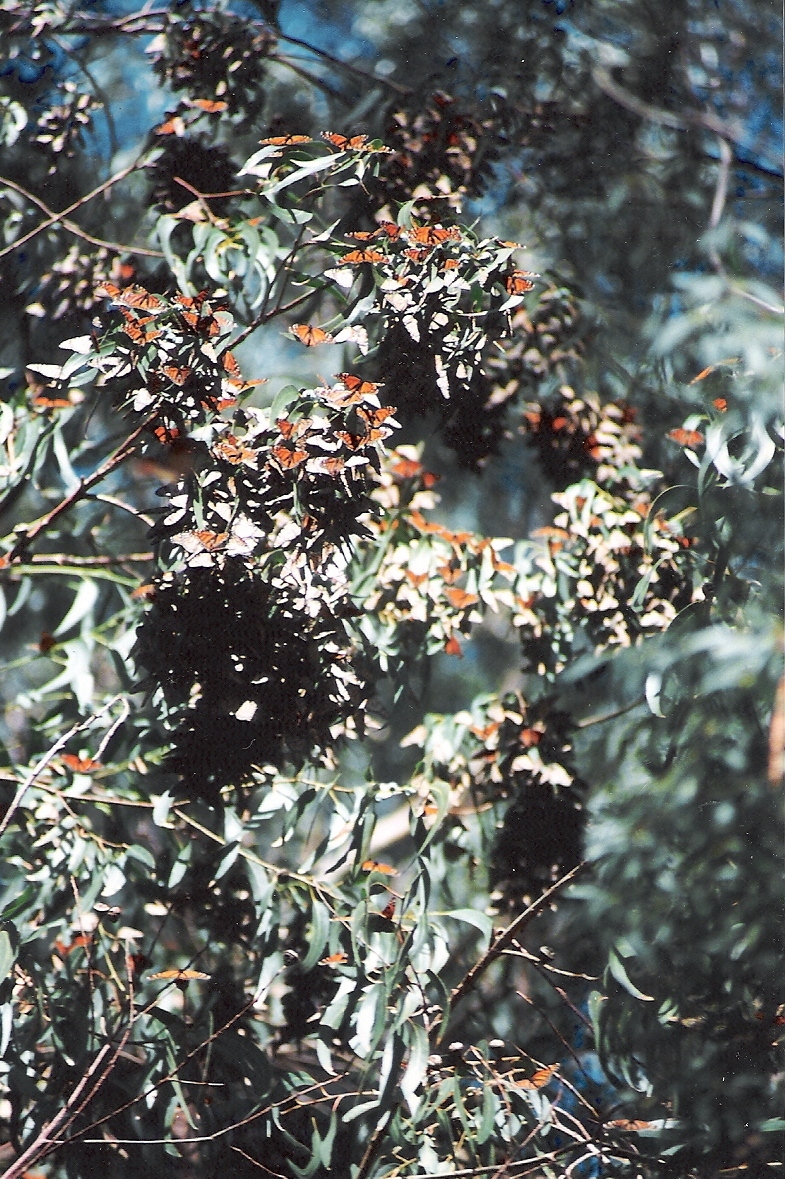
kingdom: Animalia
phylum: Arthropoda
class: Insecta
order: Lepidoptera
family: Nymphalidae
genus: Danaus
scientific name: Danaus plexippus
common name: Monarch
